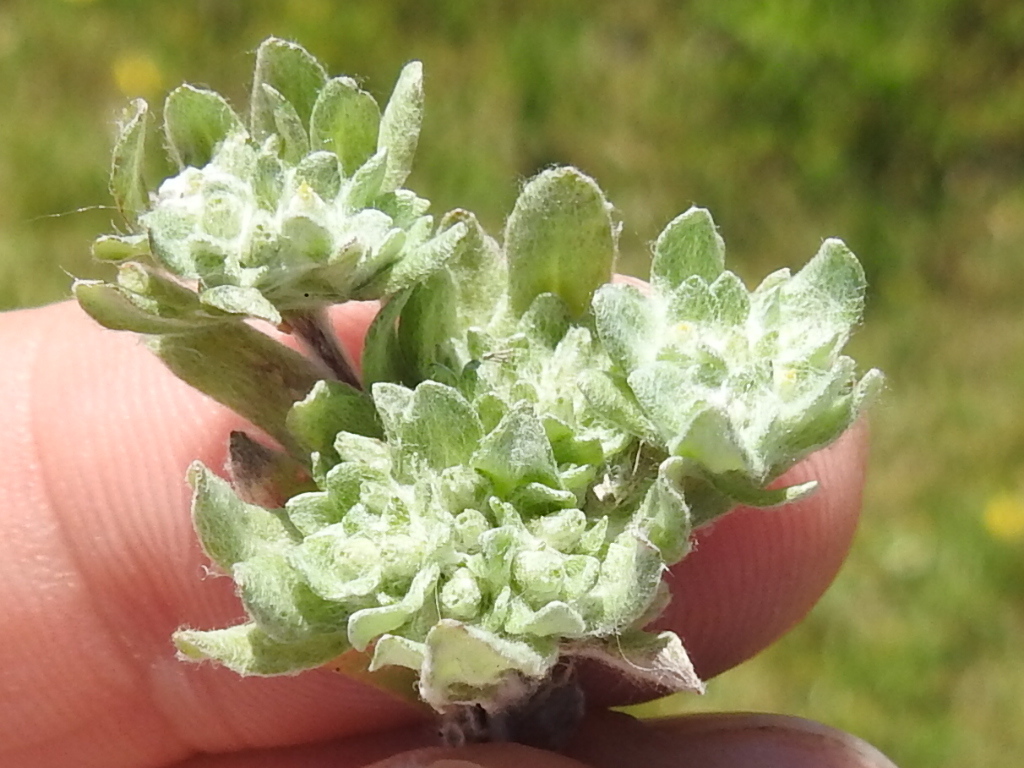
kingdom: Plantae
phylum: Tracheophyta
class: Magnoliopsida
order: Asterales
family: Asteraceae
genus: Diaperia
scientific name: Diaperia prolifera
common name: Big-head rabbit-tobacco
